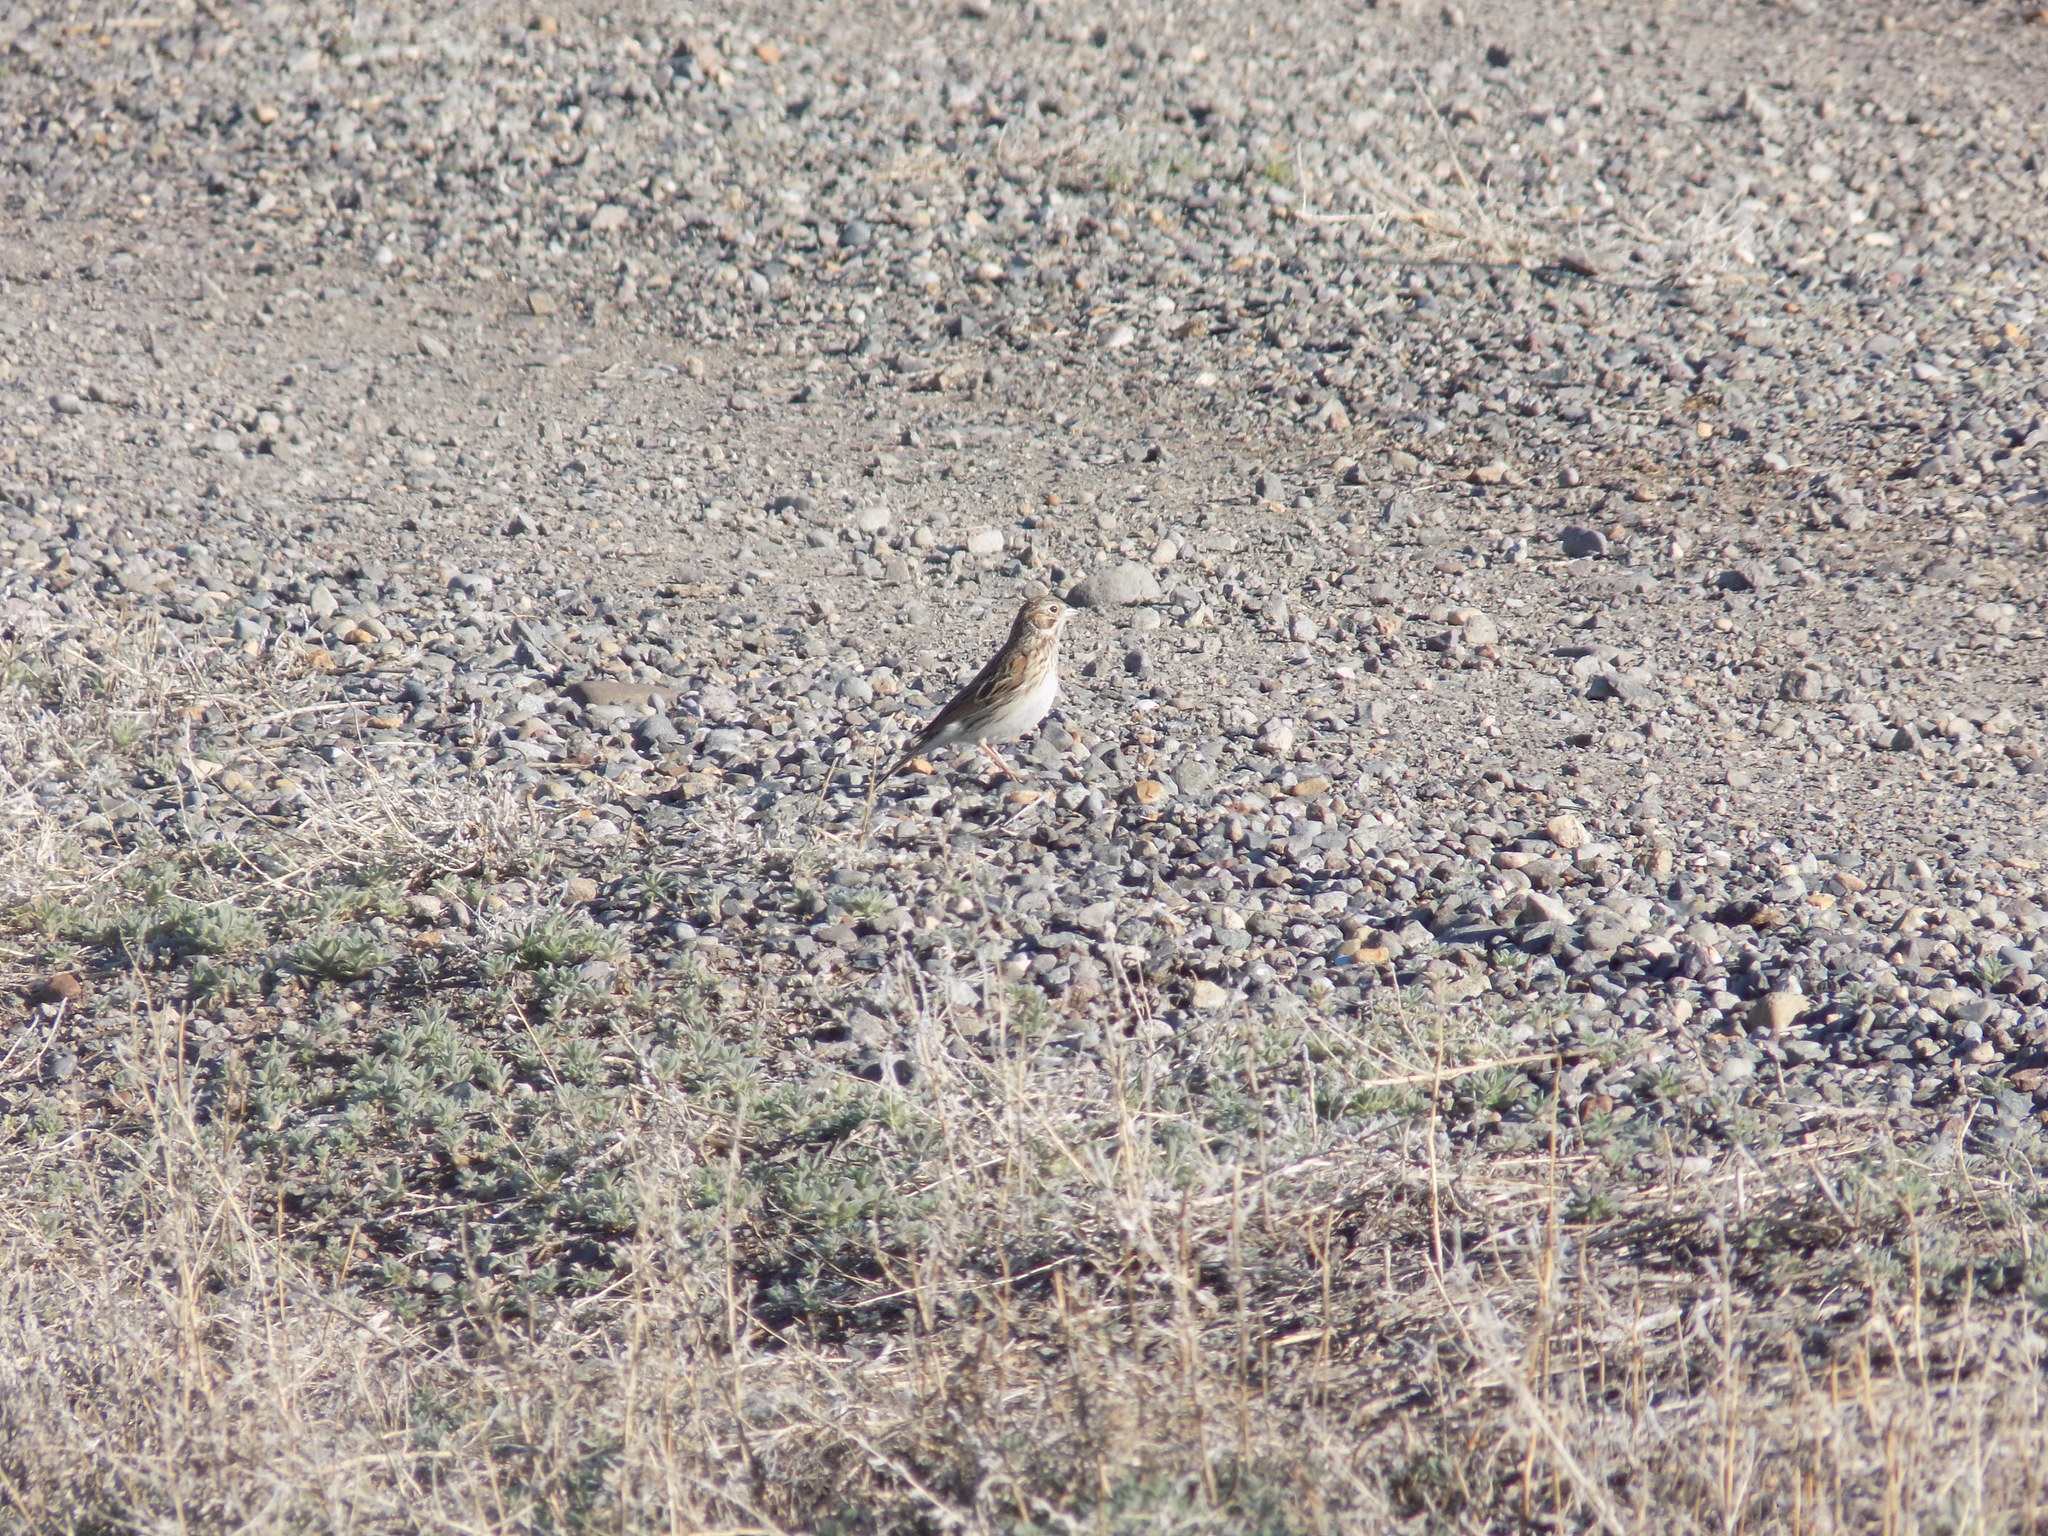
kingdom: Animalia
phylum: Chordata
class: Aves
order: Passeriformes
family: Passerellidae
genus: Pooecetes
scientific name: Pooecetes gramineus
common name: Vesper sparrow
